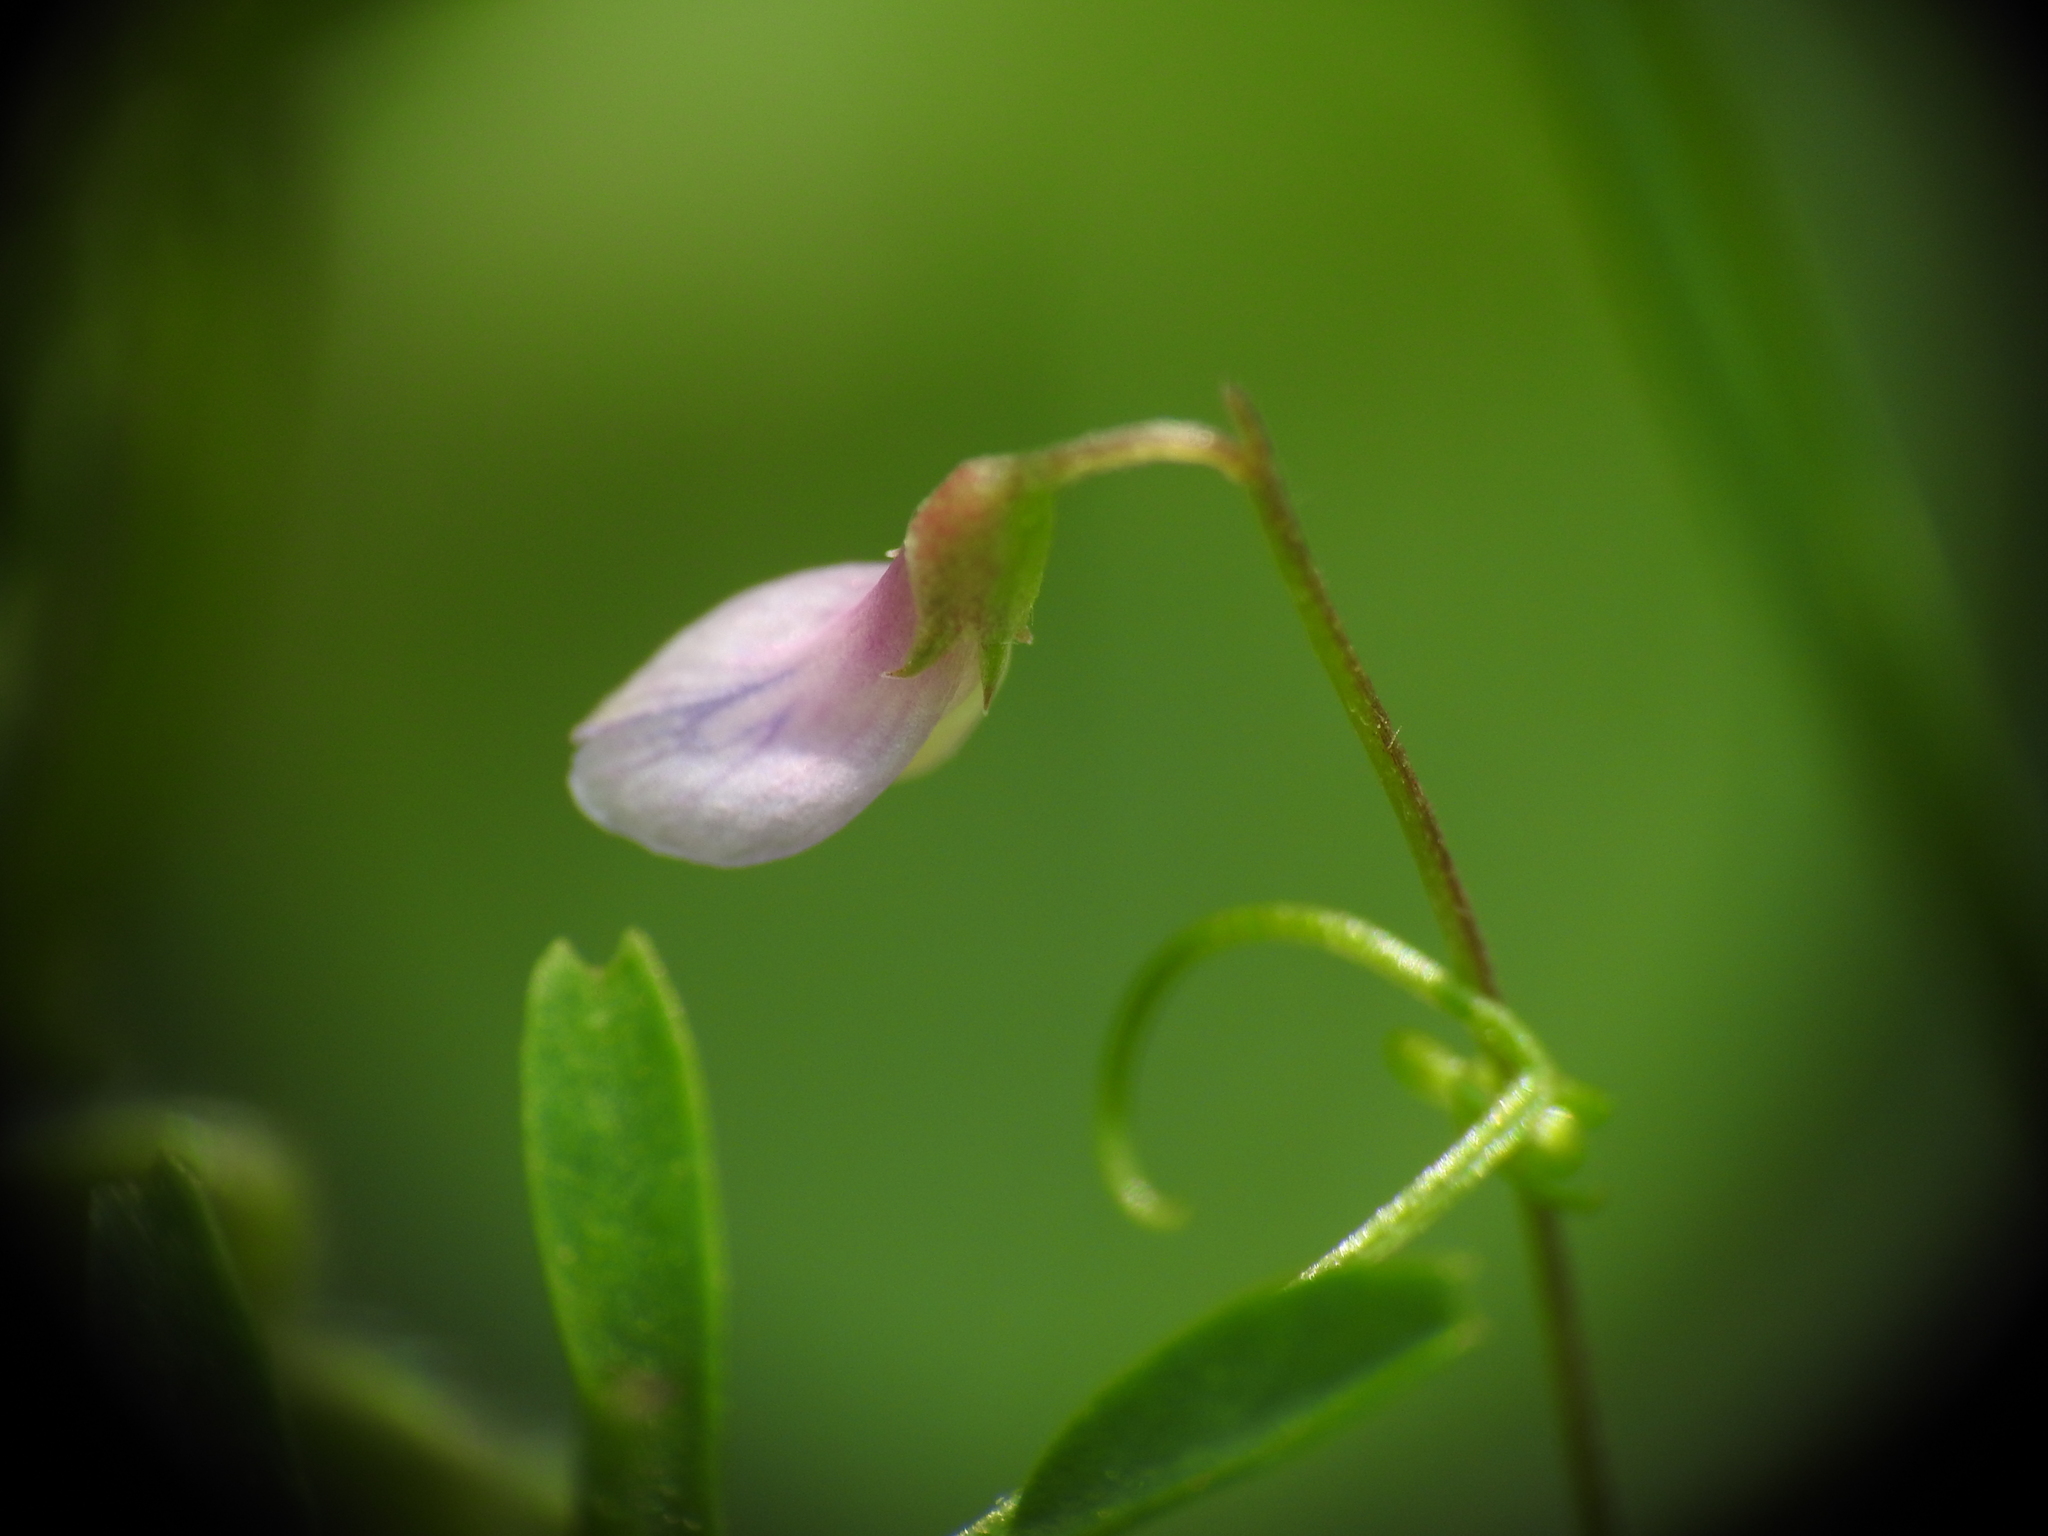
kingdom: Plantae
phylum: Tracheophyta
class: Magnoliopsida
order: Fabales
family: Fabaceae
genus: Vicia
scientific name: Vicia tetrasperma
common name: Smooth tare
